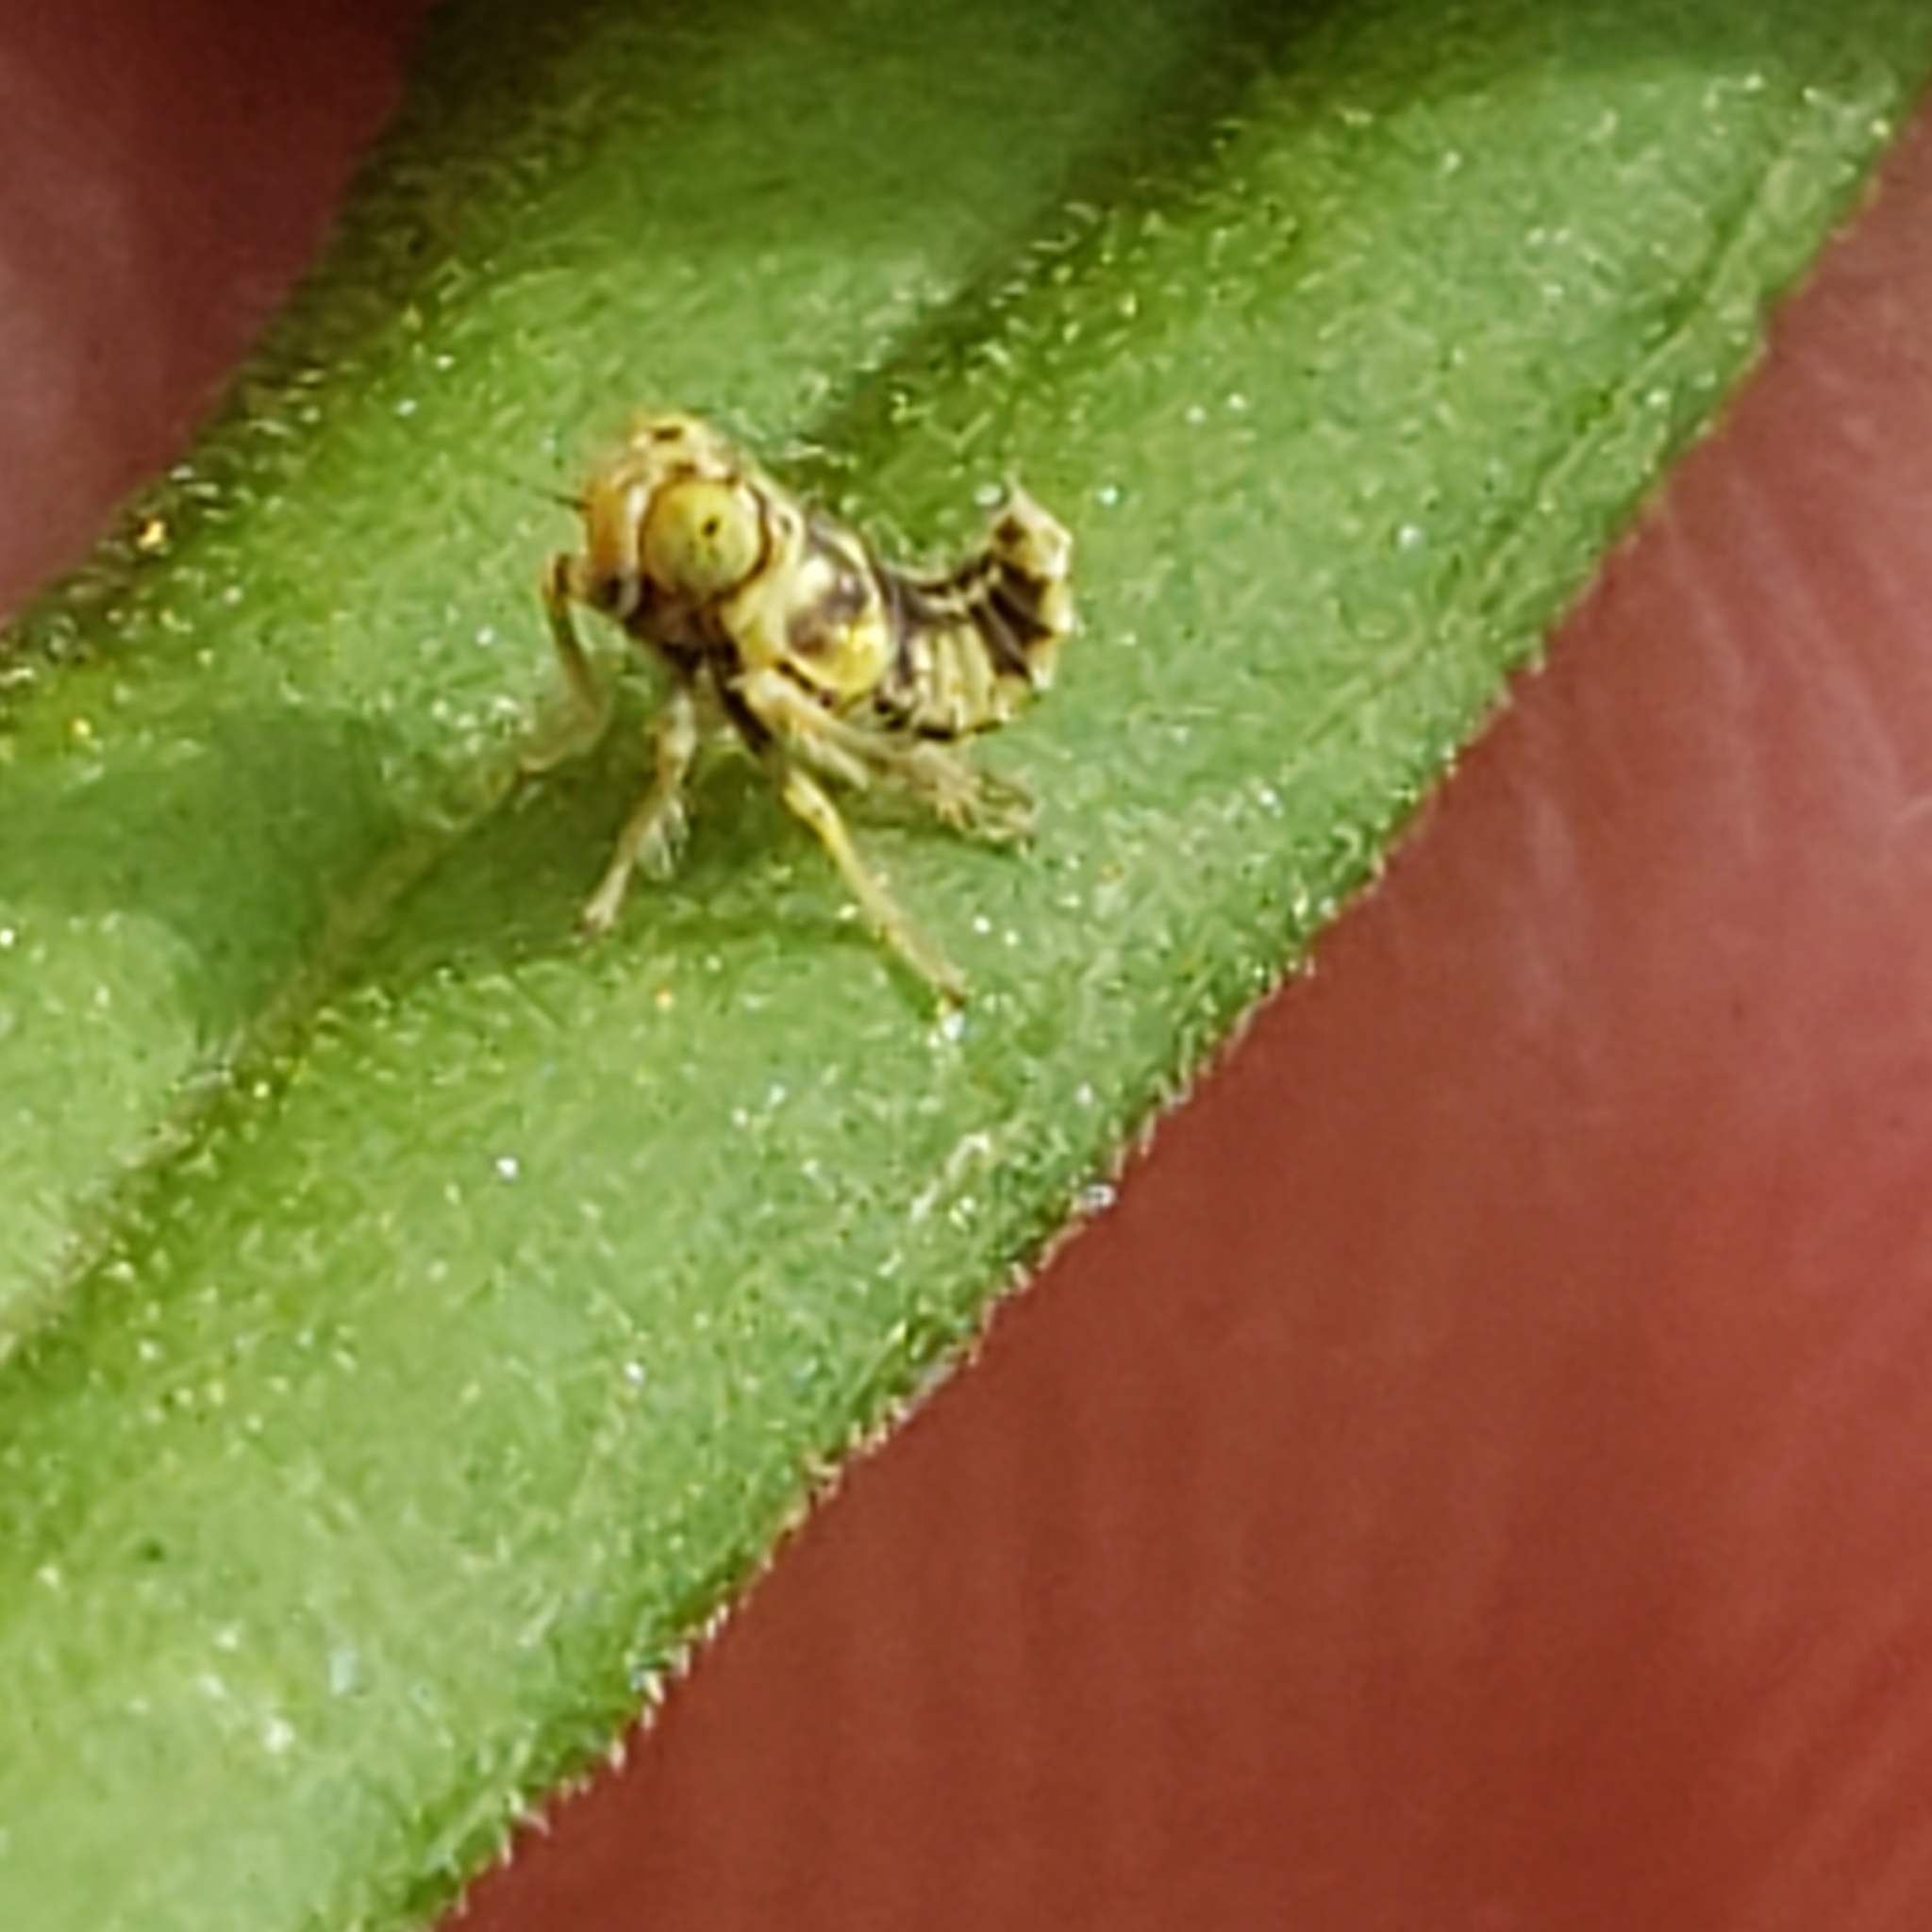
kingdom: Animalia
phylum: Arthropoda
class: Insecta
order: Hemiptera
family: Cicadellidae
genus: Jikradia
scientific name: Jikradia olitoria
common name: Coppery leafhopper
